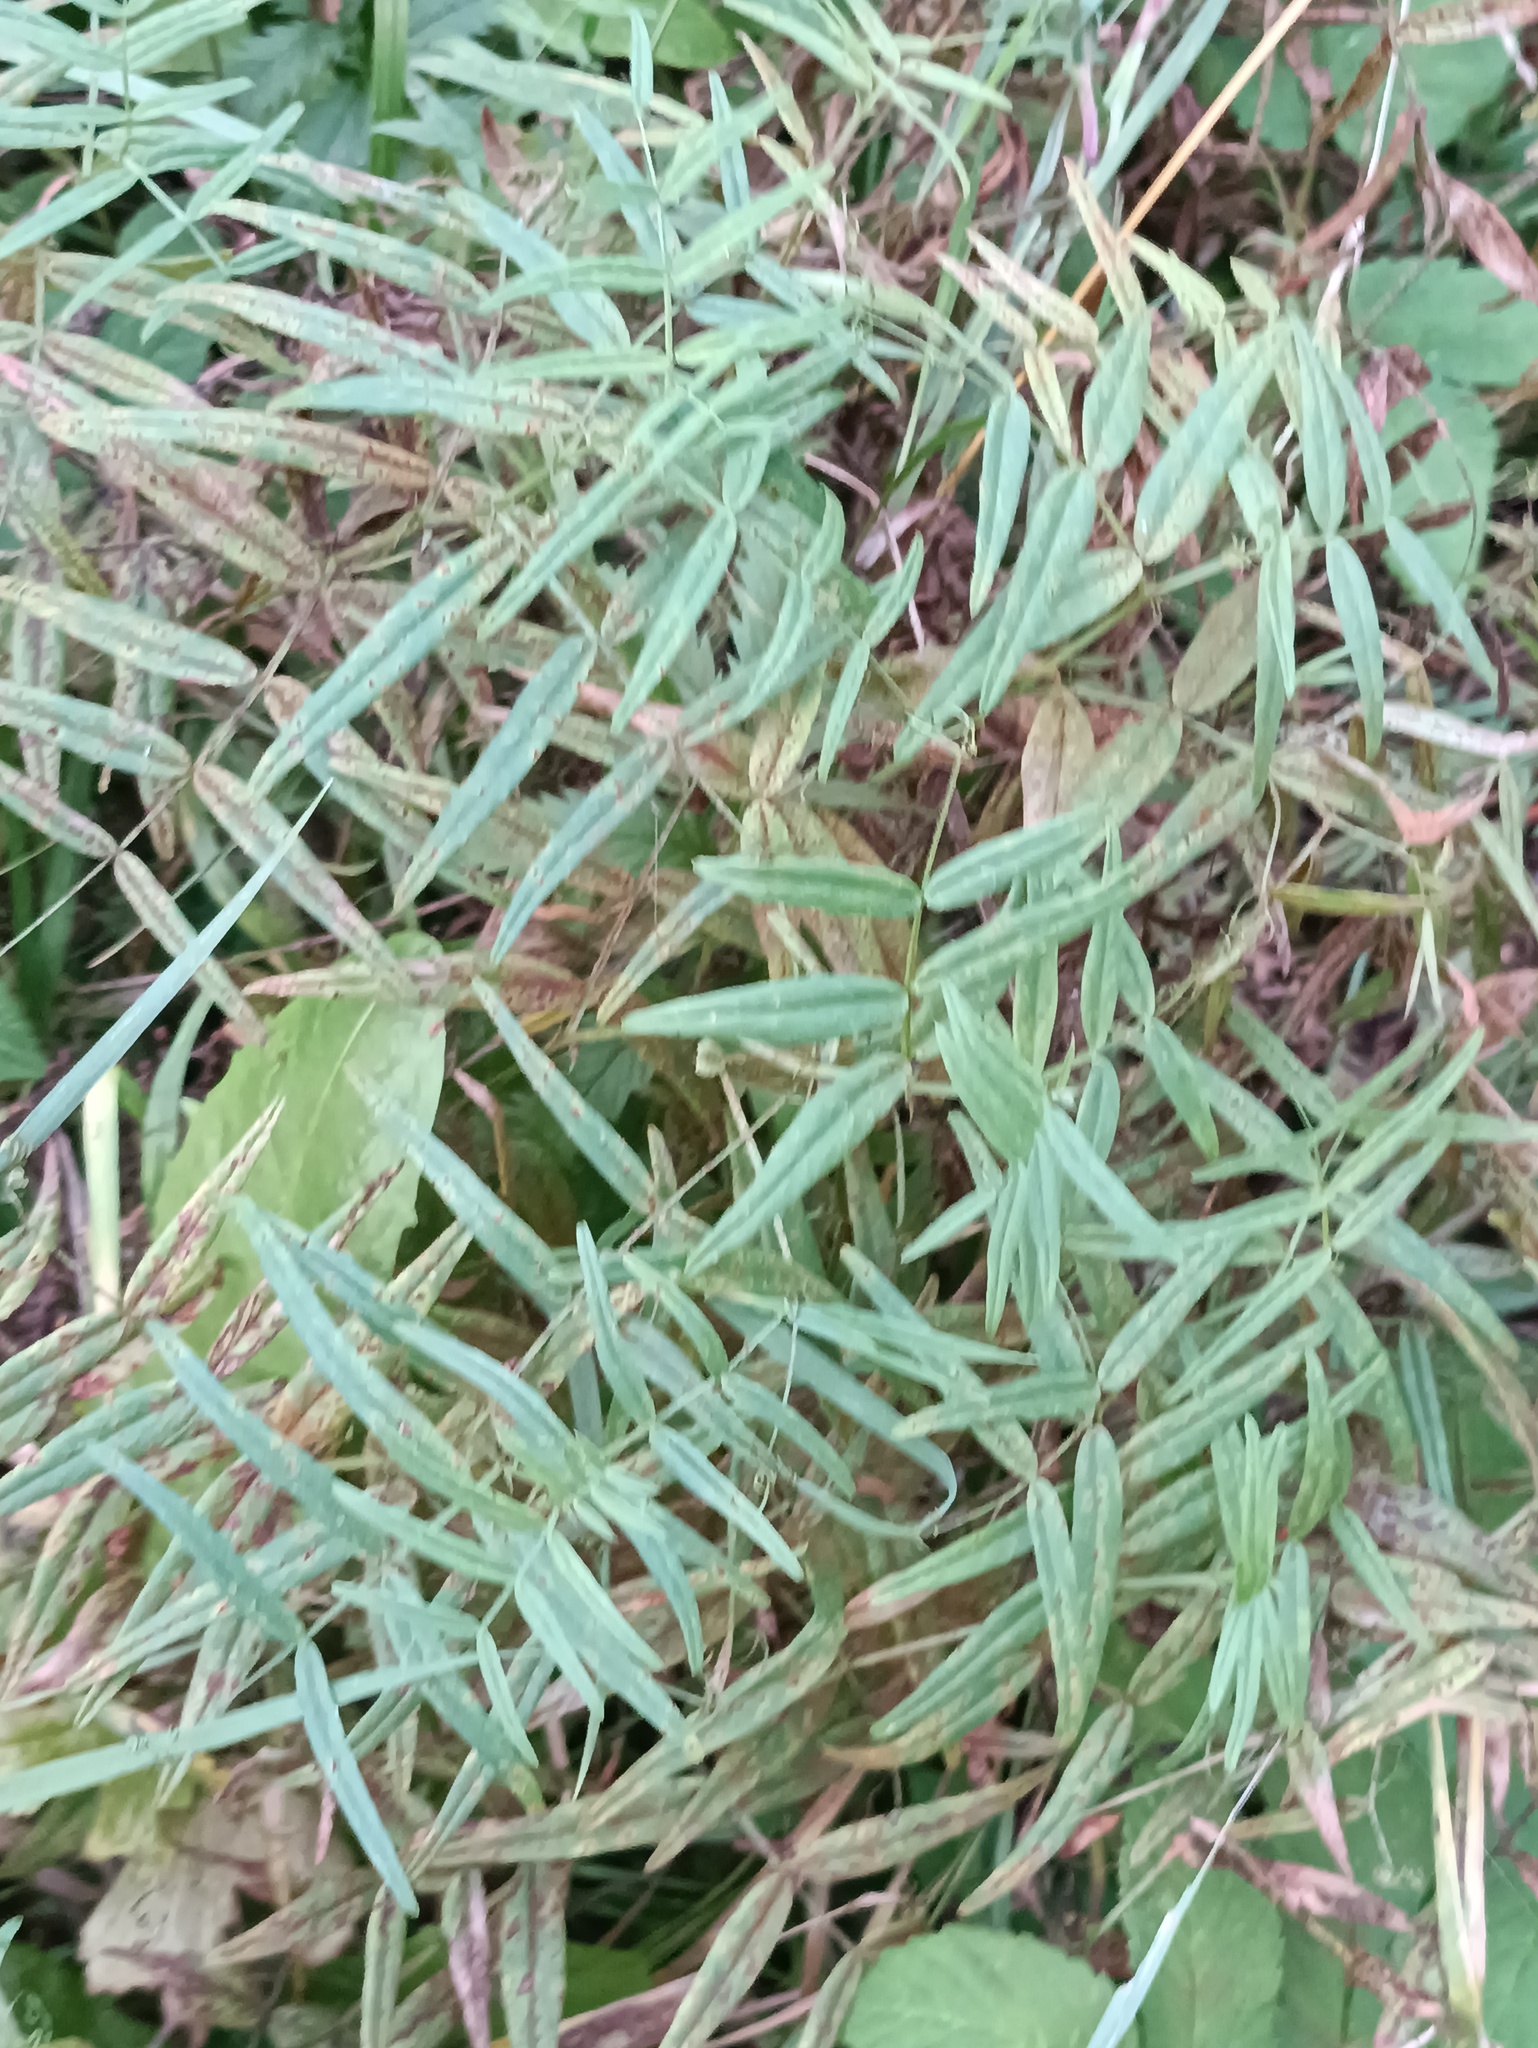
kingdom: Plantae
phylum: Tracheophyta
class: Magnoliopsida
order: Fabales
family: Fabaceae
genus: Vicia
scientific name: Vicia sepium
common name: Bush vetch
